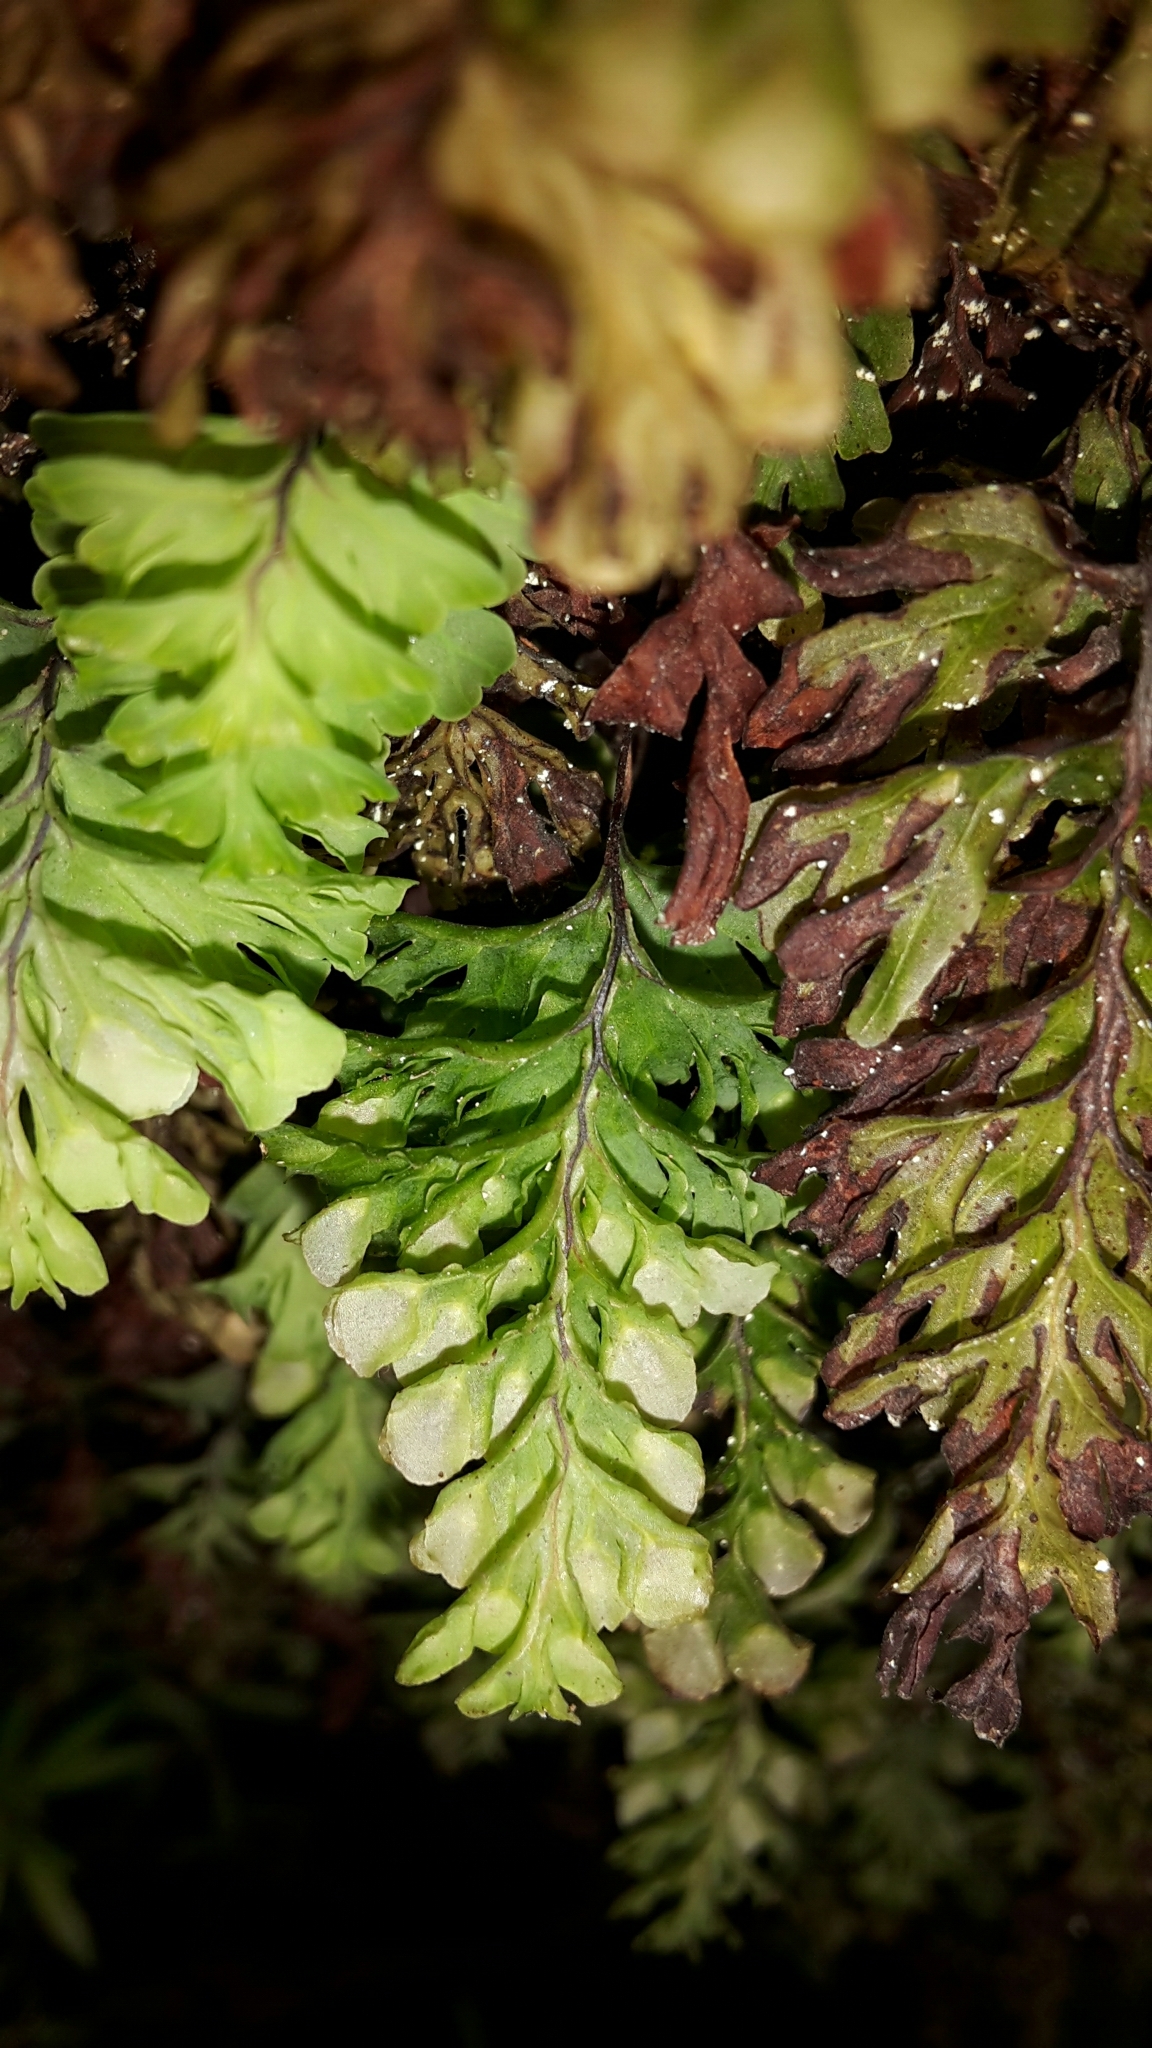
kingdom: Plantae
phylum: Tracheophyta
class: Polypodiopsida
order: Hymenophyllales
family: Hymenophyllaceae
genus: Hymenophyllum
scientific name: Hymenophyllum rarum
